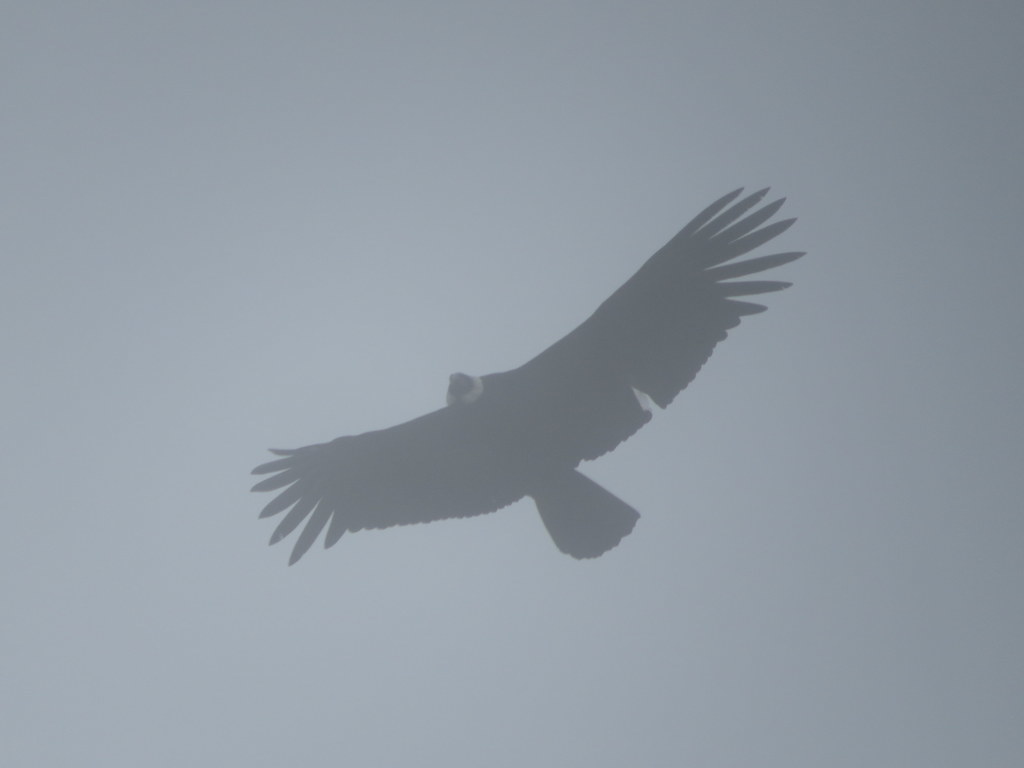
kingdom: Animalia
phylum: Chordata
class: Aves
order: Accipitriformes
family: Cathartidae
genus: Vultur
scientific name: Vultur gryphus
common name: Andean condor
